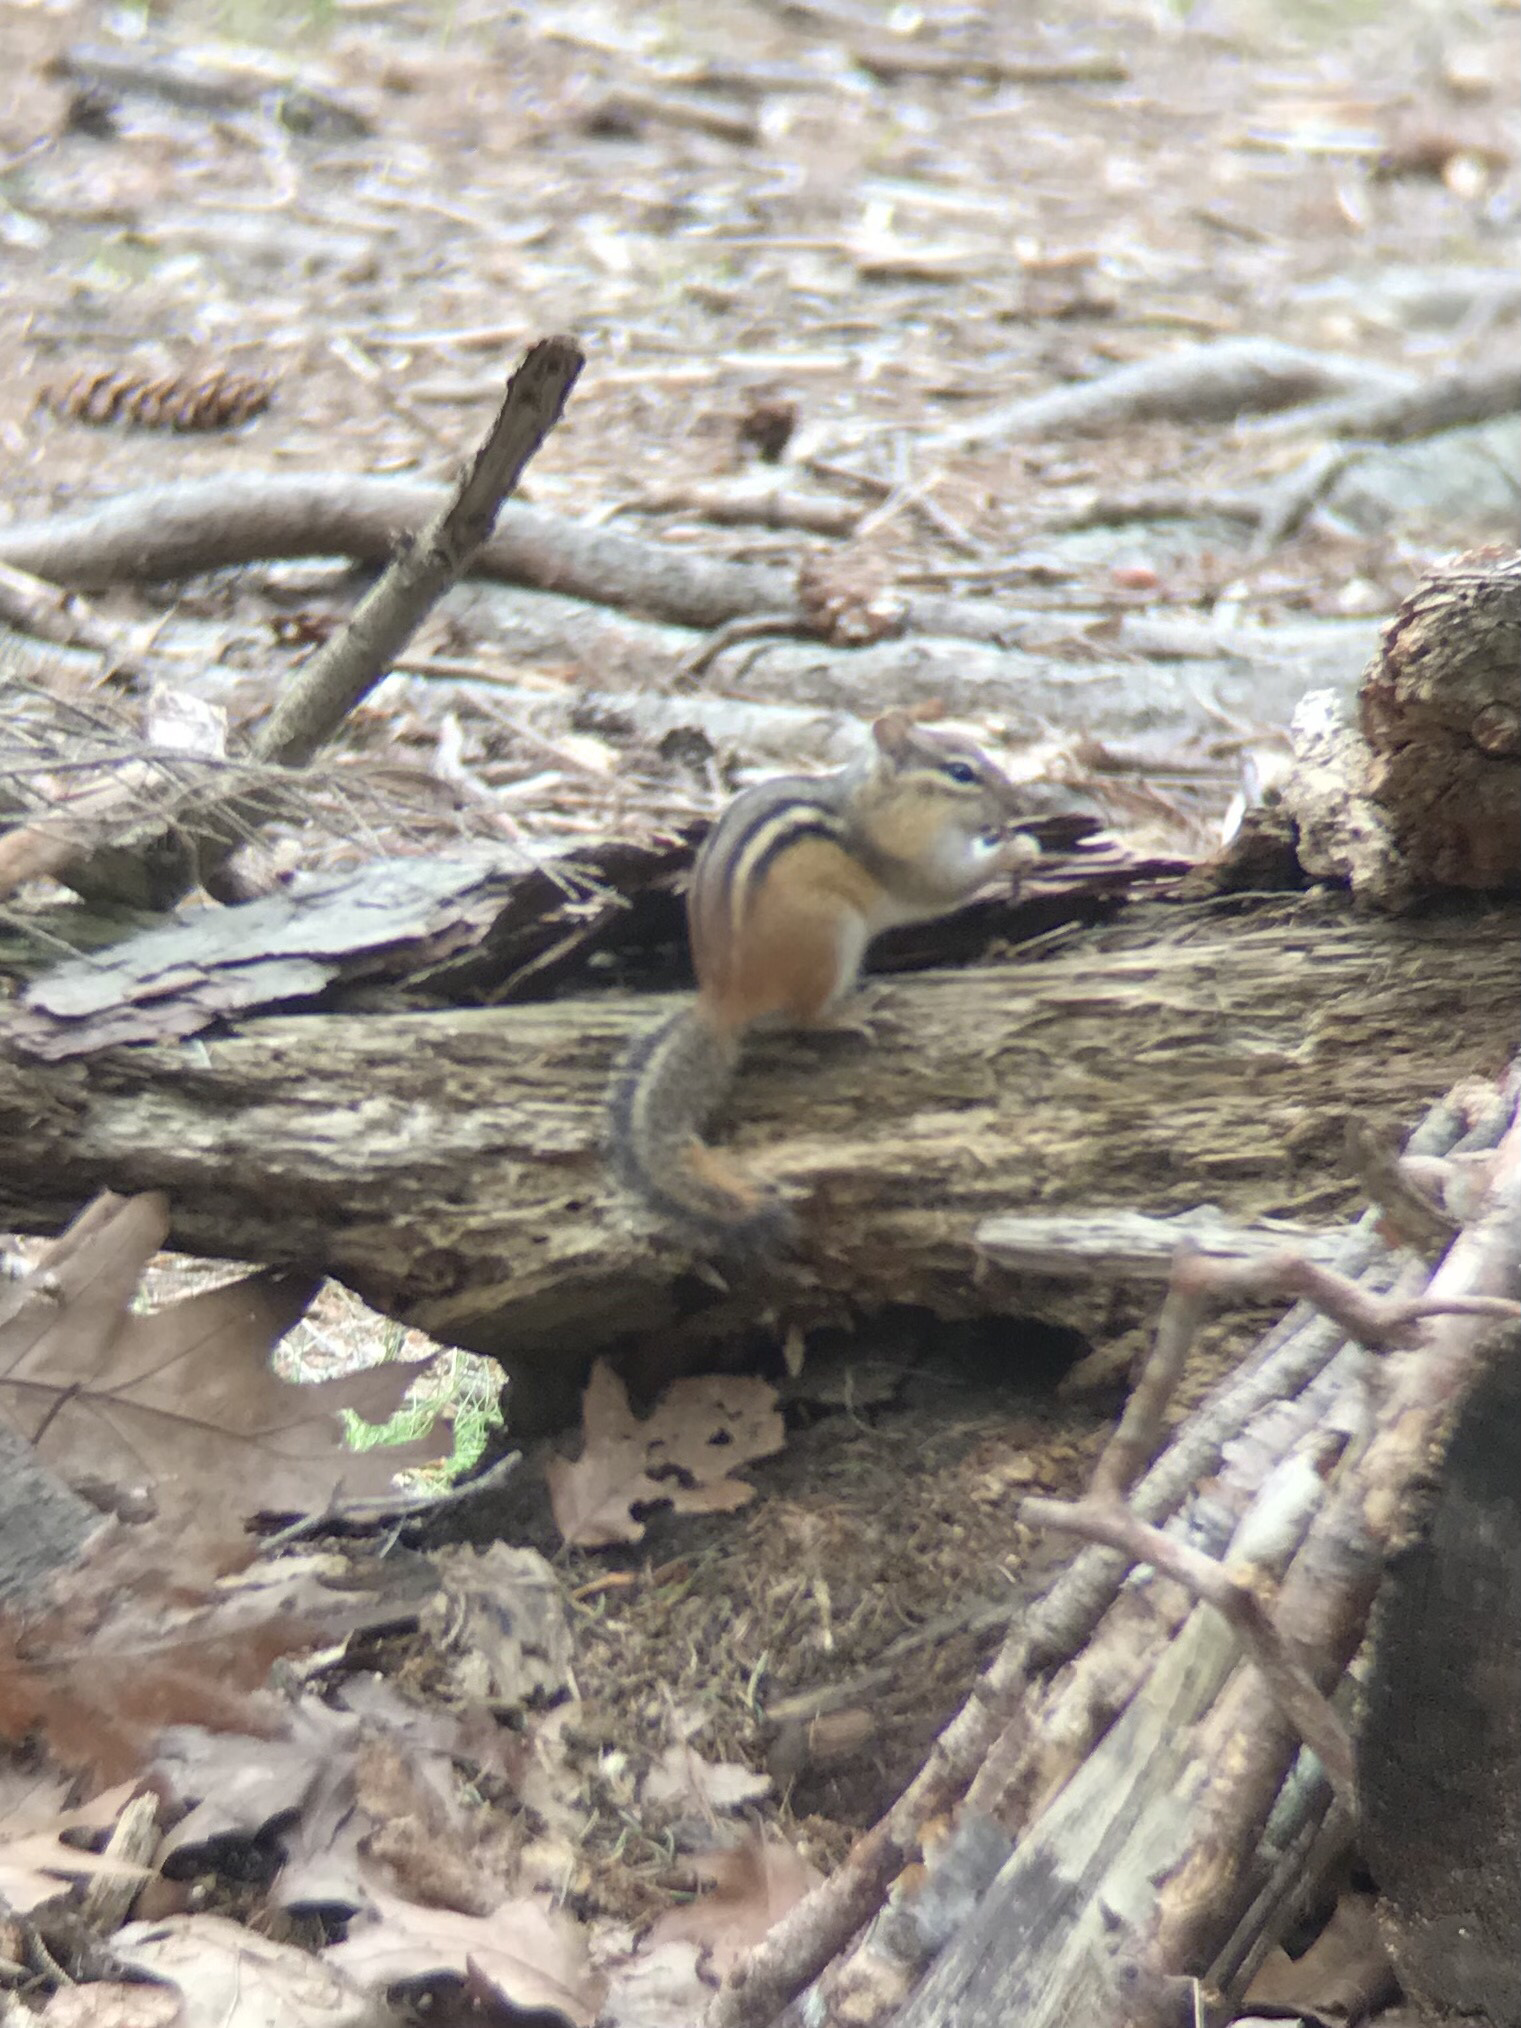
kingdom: Animalia
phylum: Chordata
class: Mammalia
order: Rodentia
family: Sciuridae
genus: Tamias
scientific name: Tamias striatus
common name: Eastern chipmunk
